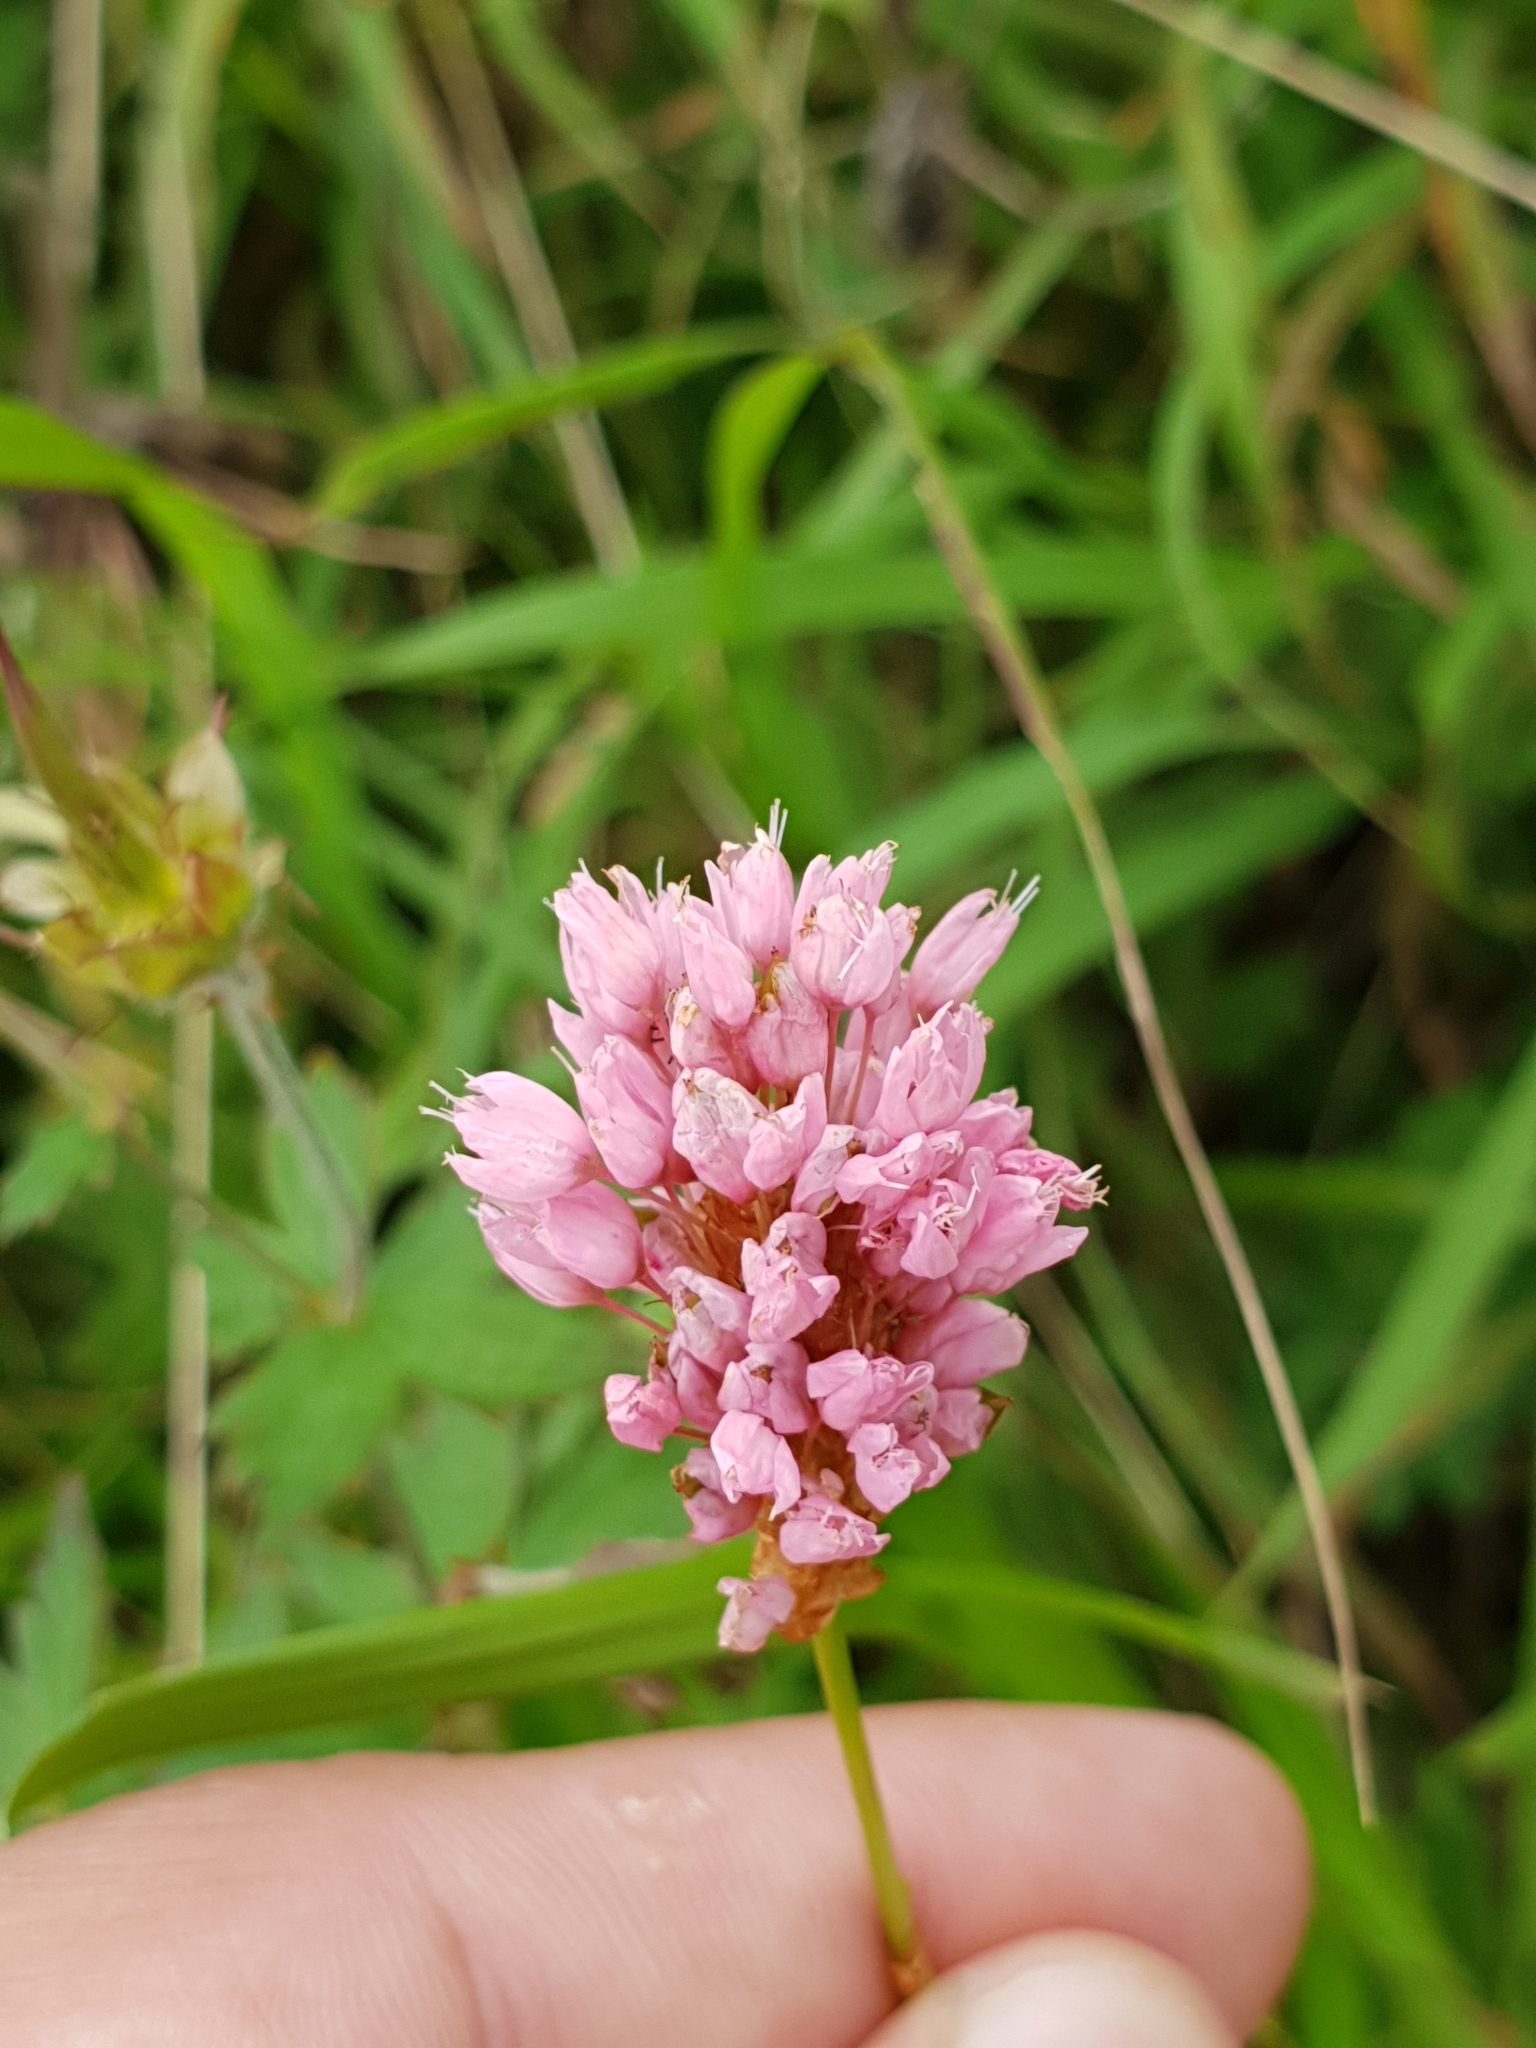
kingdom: Plantae
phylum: Tracheophyta
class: Magnoliopsida
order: Caryophyllales
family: Polygonaceae
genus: Bistorta
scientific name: Bistorta carnea
